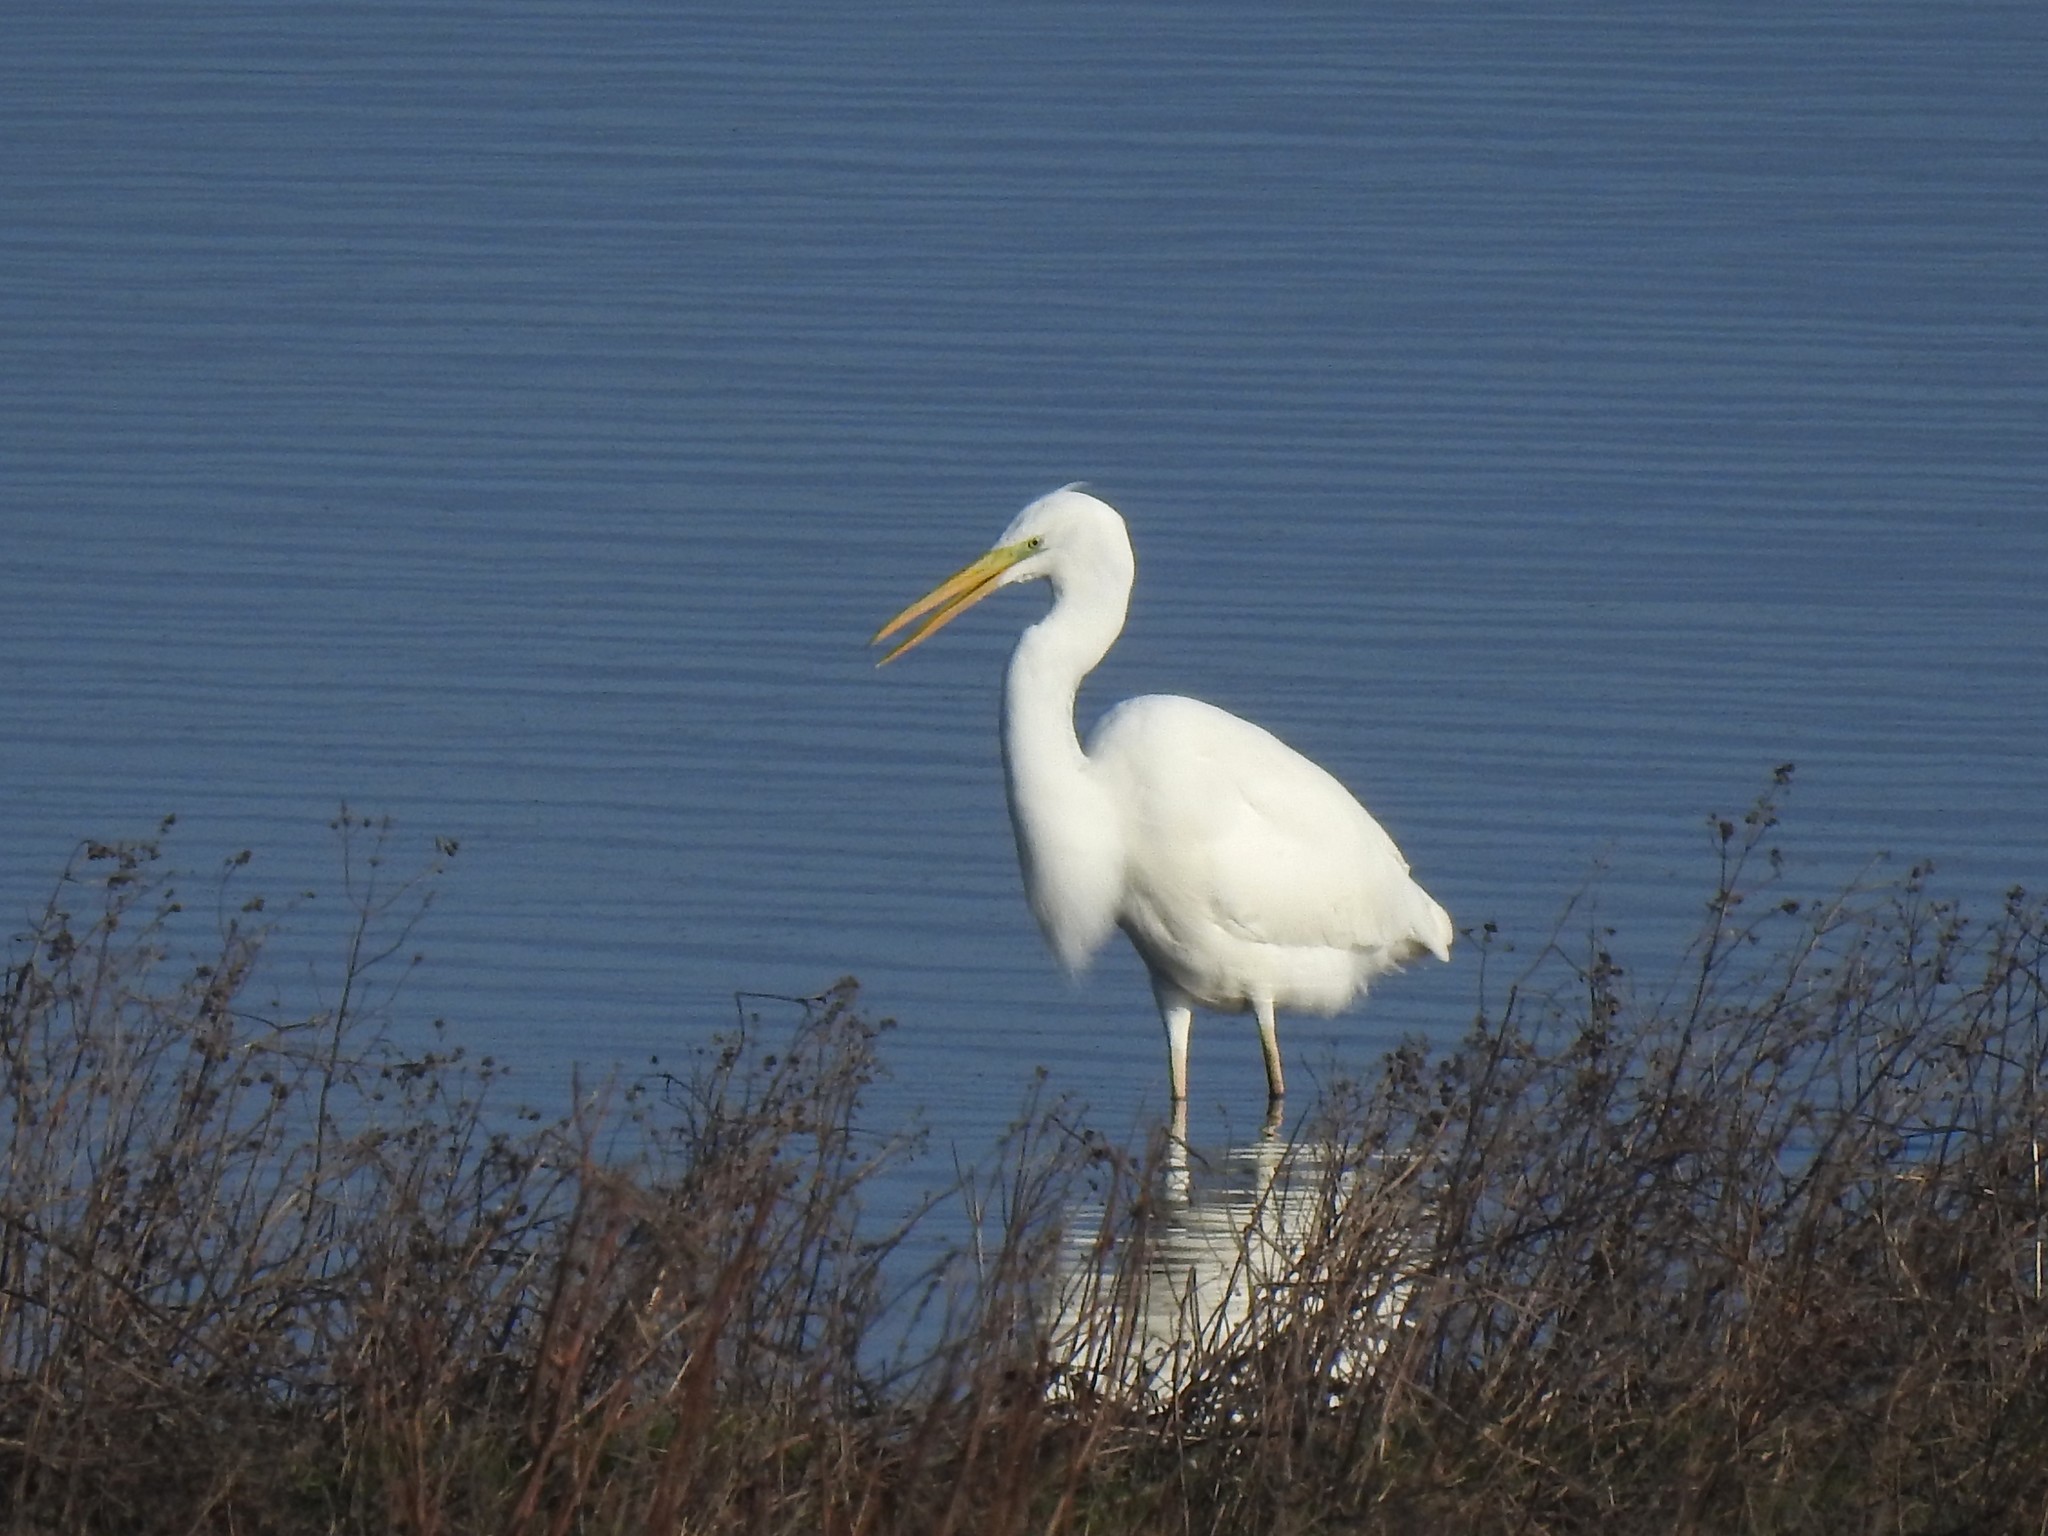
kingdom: Animalia
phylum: Chordata
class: Aves
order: Pelecaniformes
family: Ardeidae
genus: Ardea
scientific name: Ardea alba
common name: Great egret
